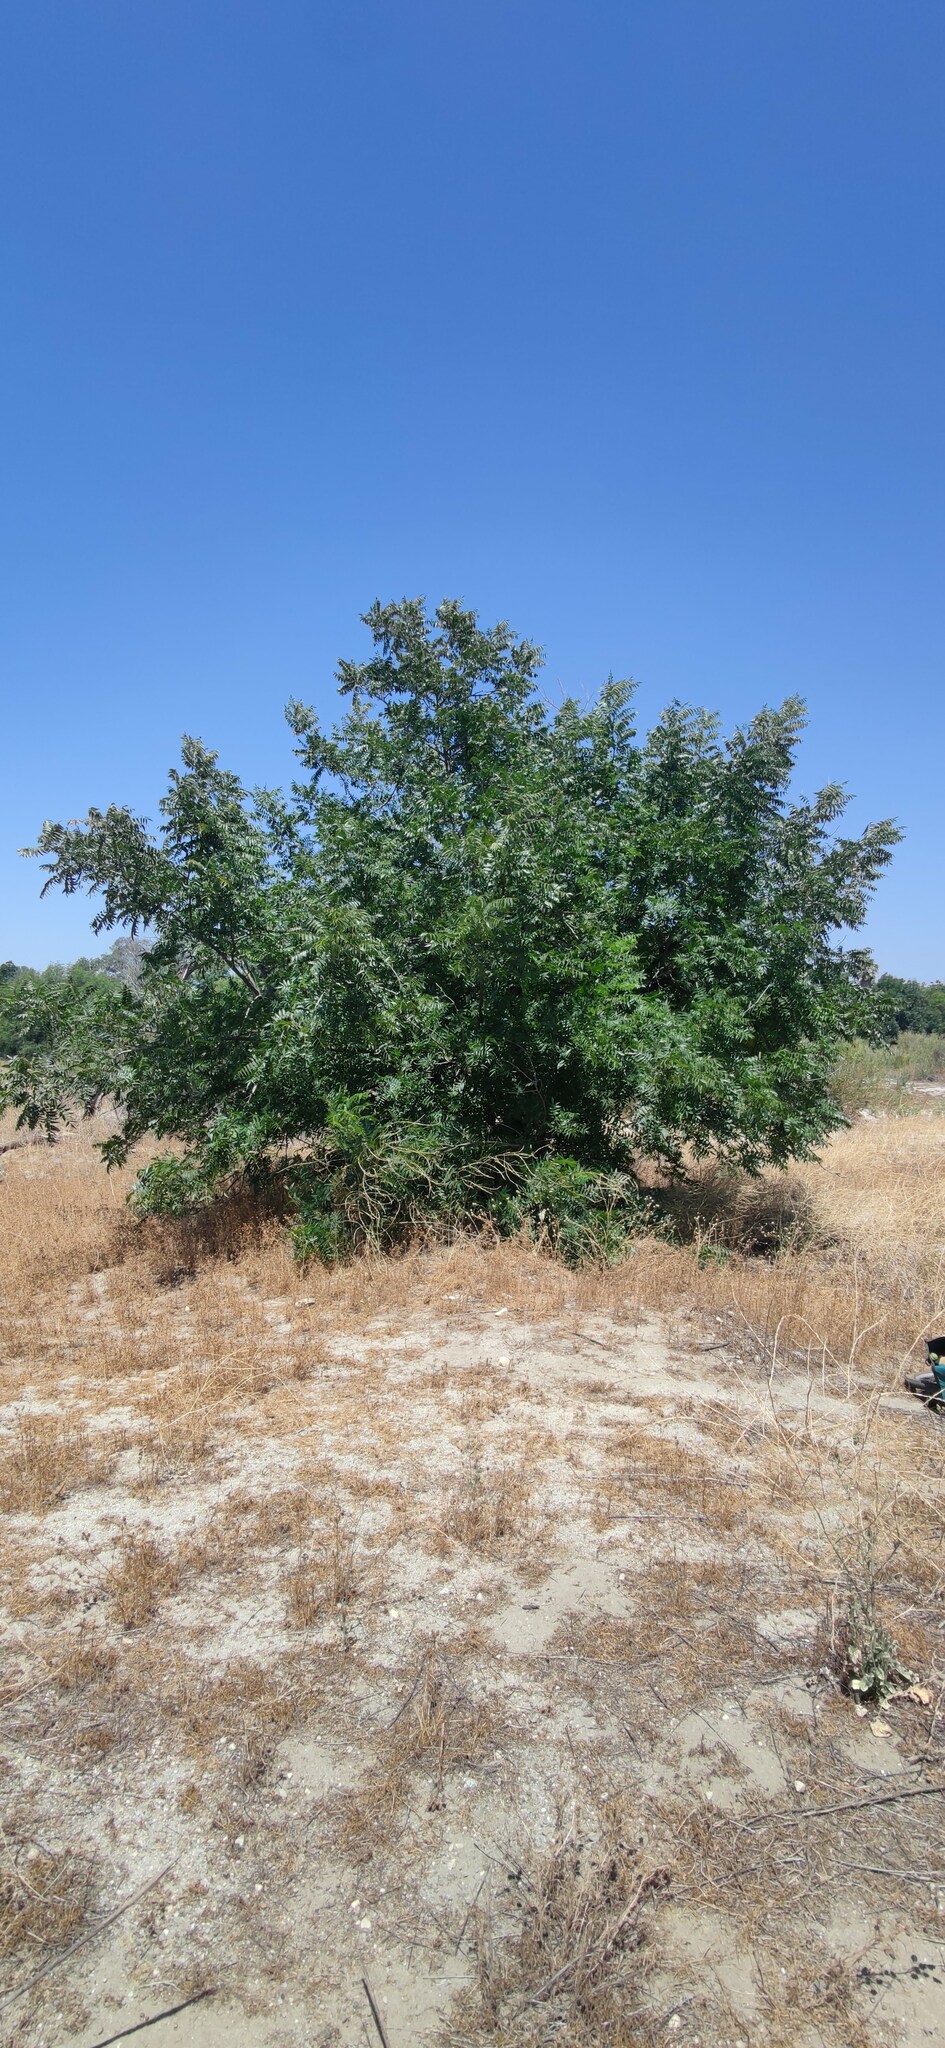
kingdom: Plantae
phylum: Tracheophyta
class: Magnoliopsida
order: Fagales
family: Juglandaceae
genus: Juglans
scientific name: Juglans californica
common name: Southern california black walnut
